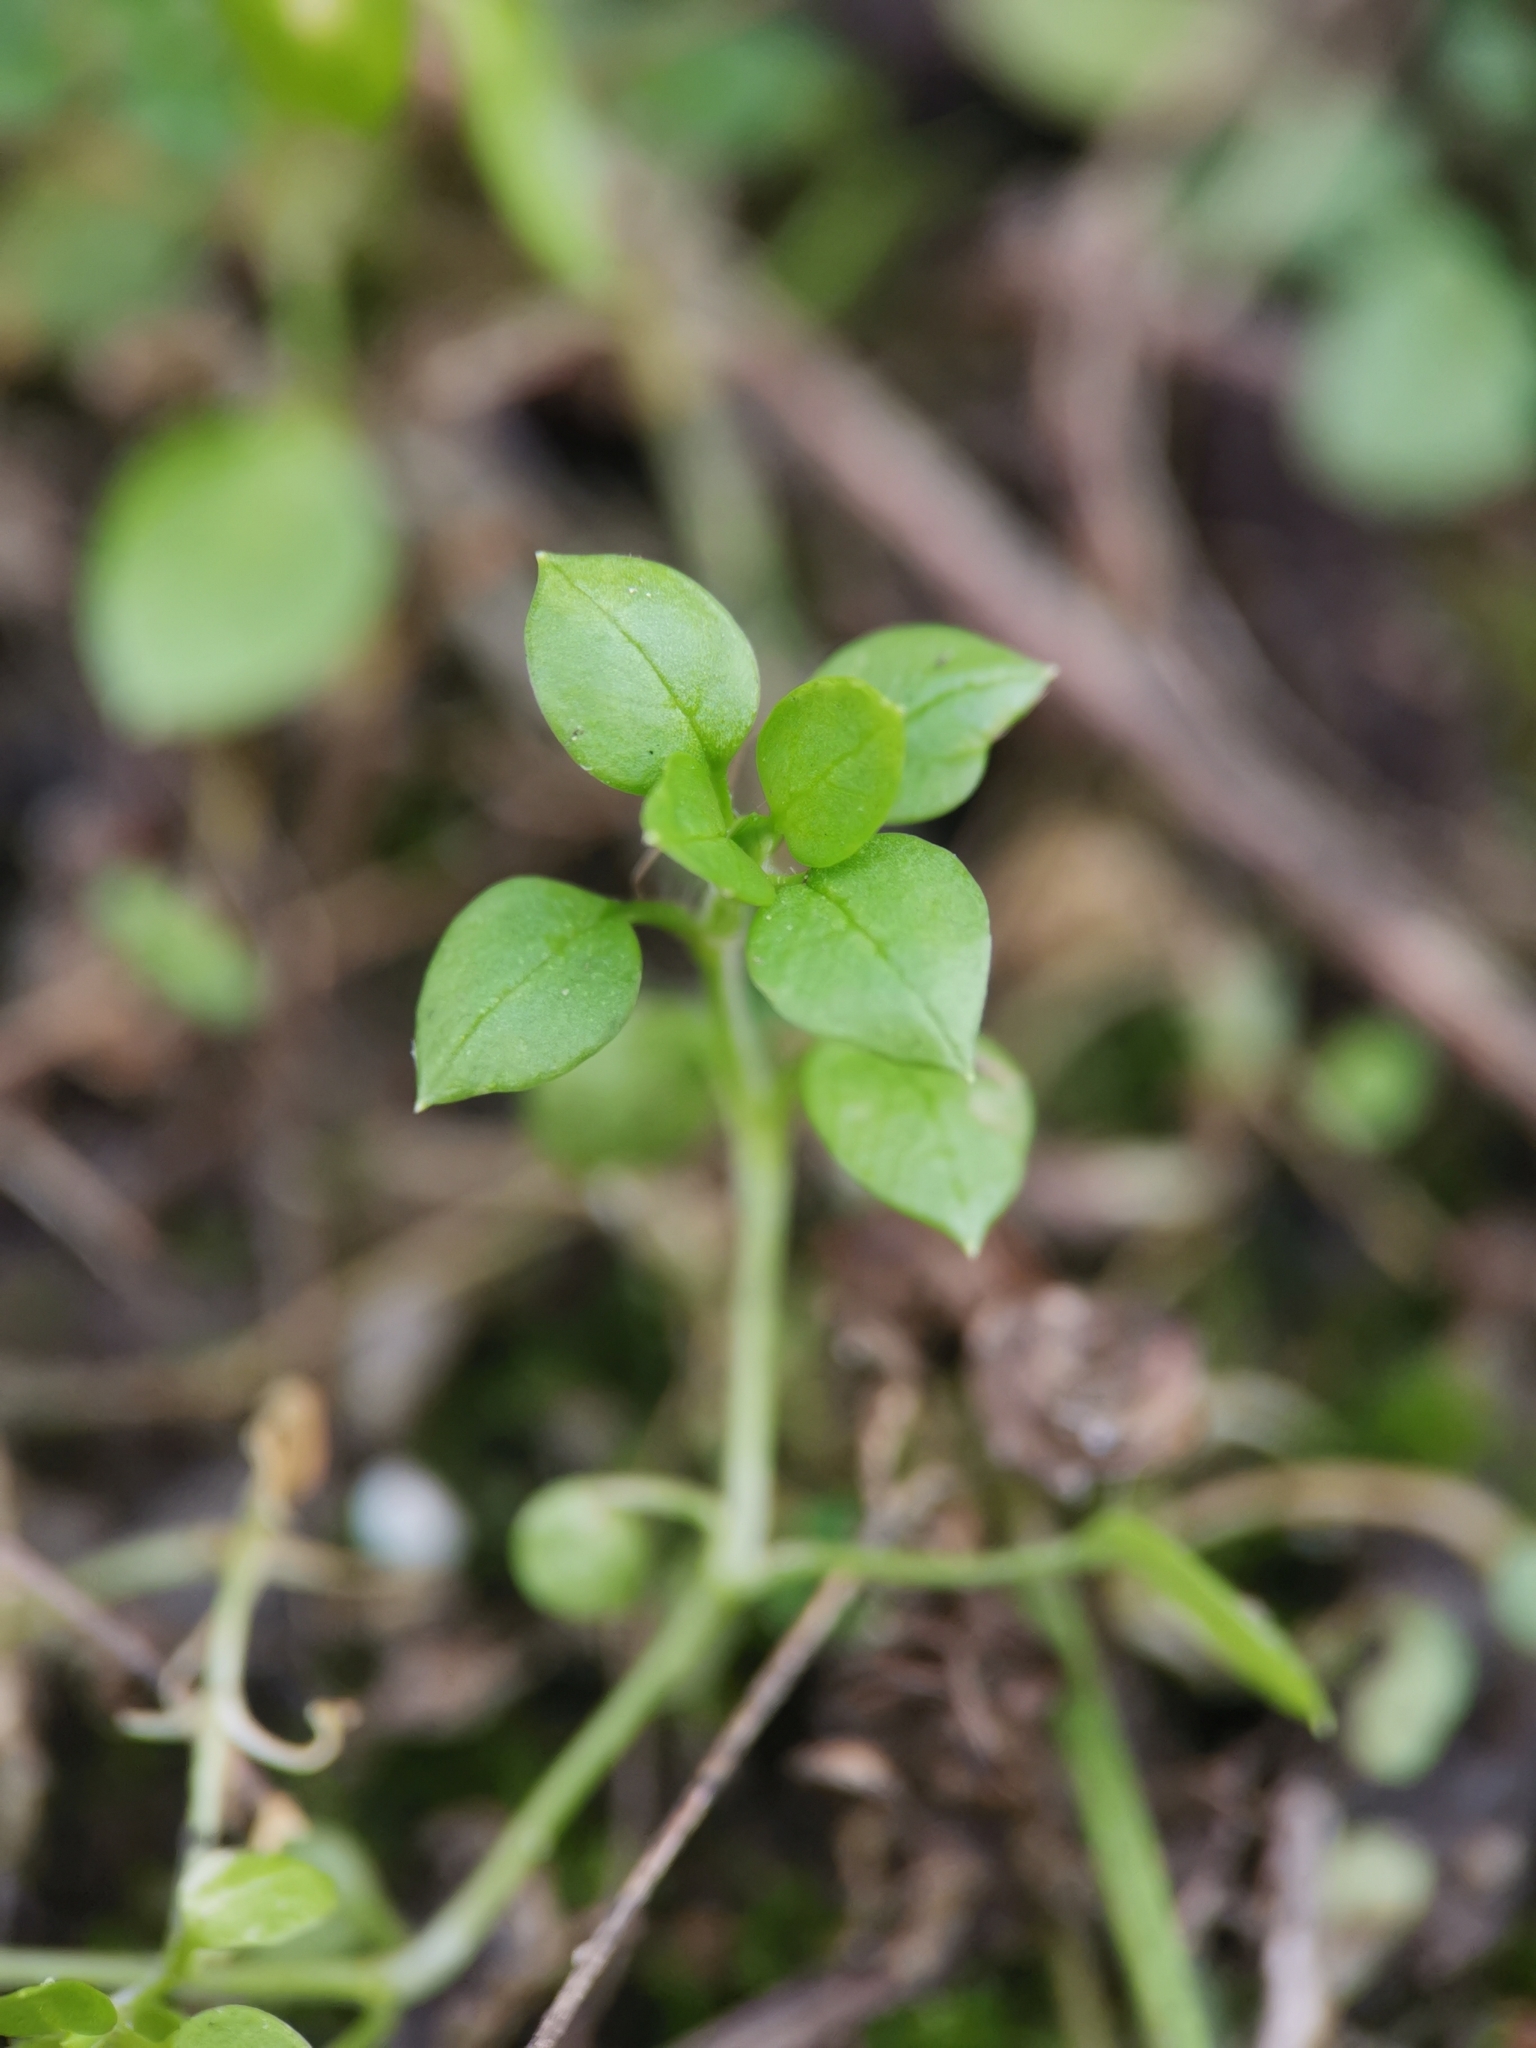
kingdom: Plantae
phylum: Tracheophyta
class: Magnoliopsida
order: Caryophyllales
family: Caryophyllaceae
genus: Stellaria
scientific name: Stellaria media
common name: Common chickweed
